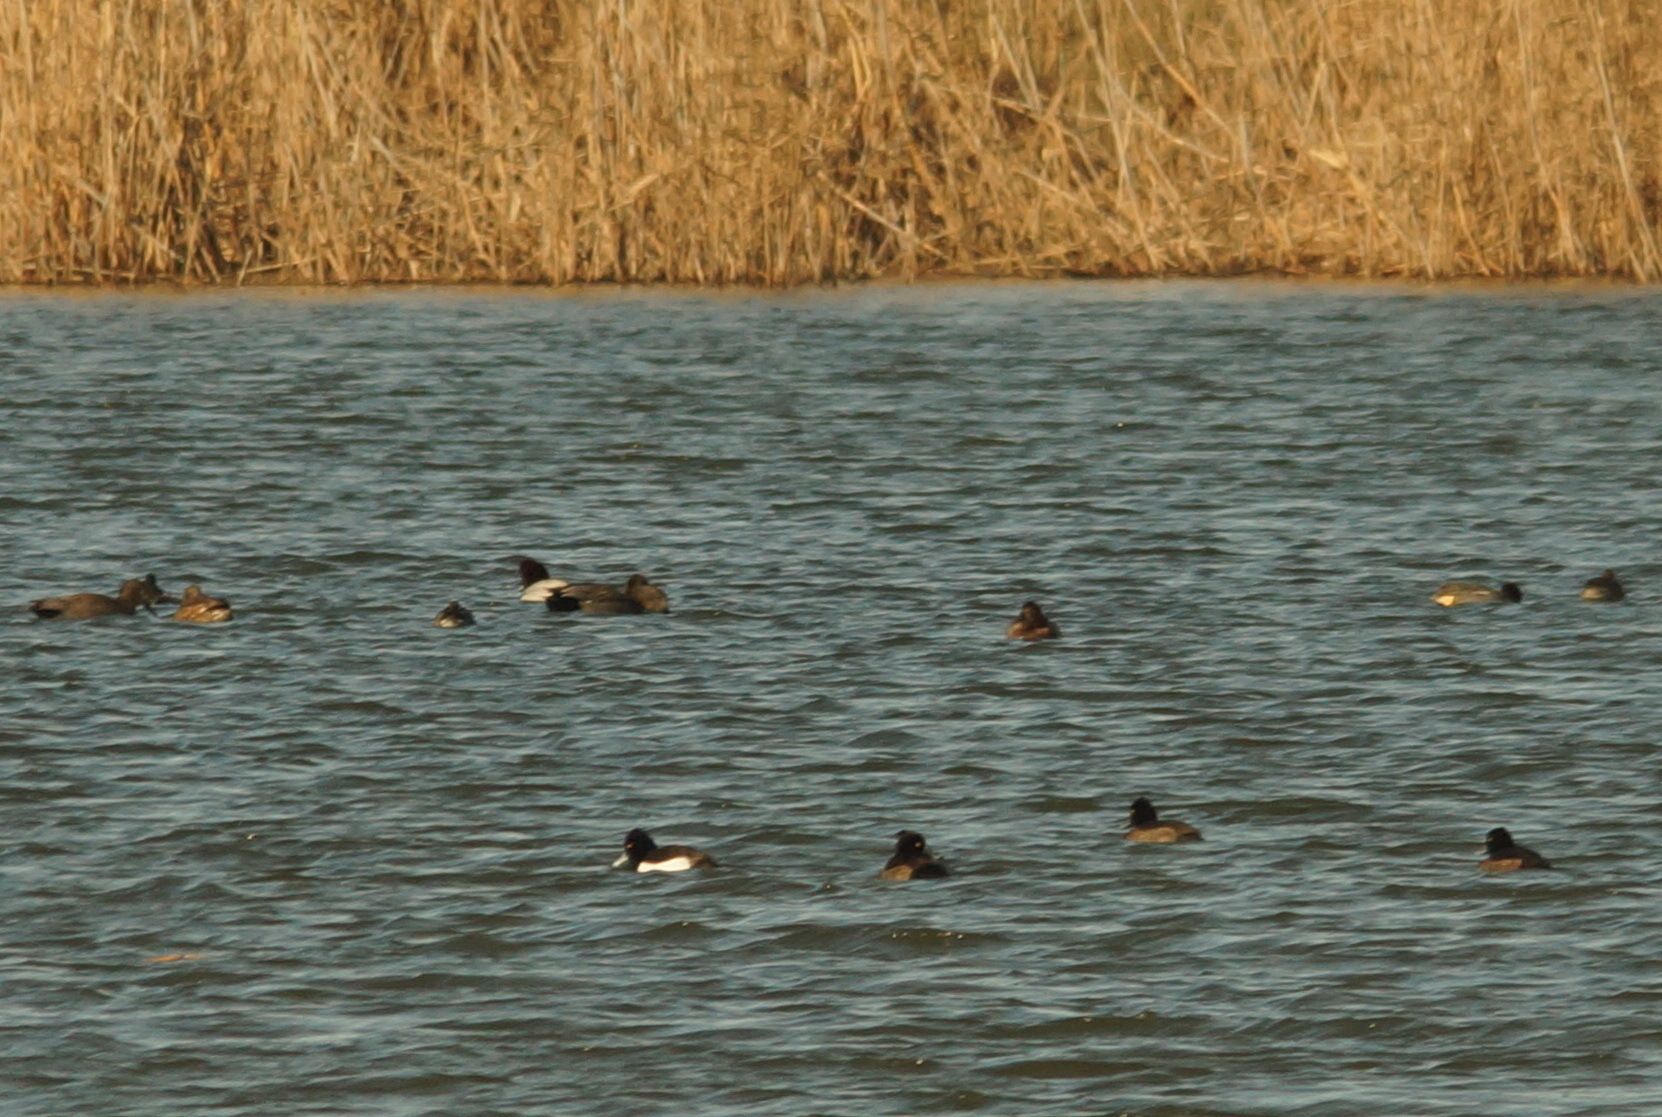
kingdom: Animalia
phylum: Chordata
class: Aves
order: Anseriformes
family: Anatidae
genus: Anas
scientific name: Anas crecca
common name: Eurasian teal
